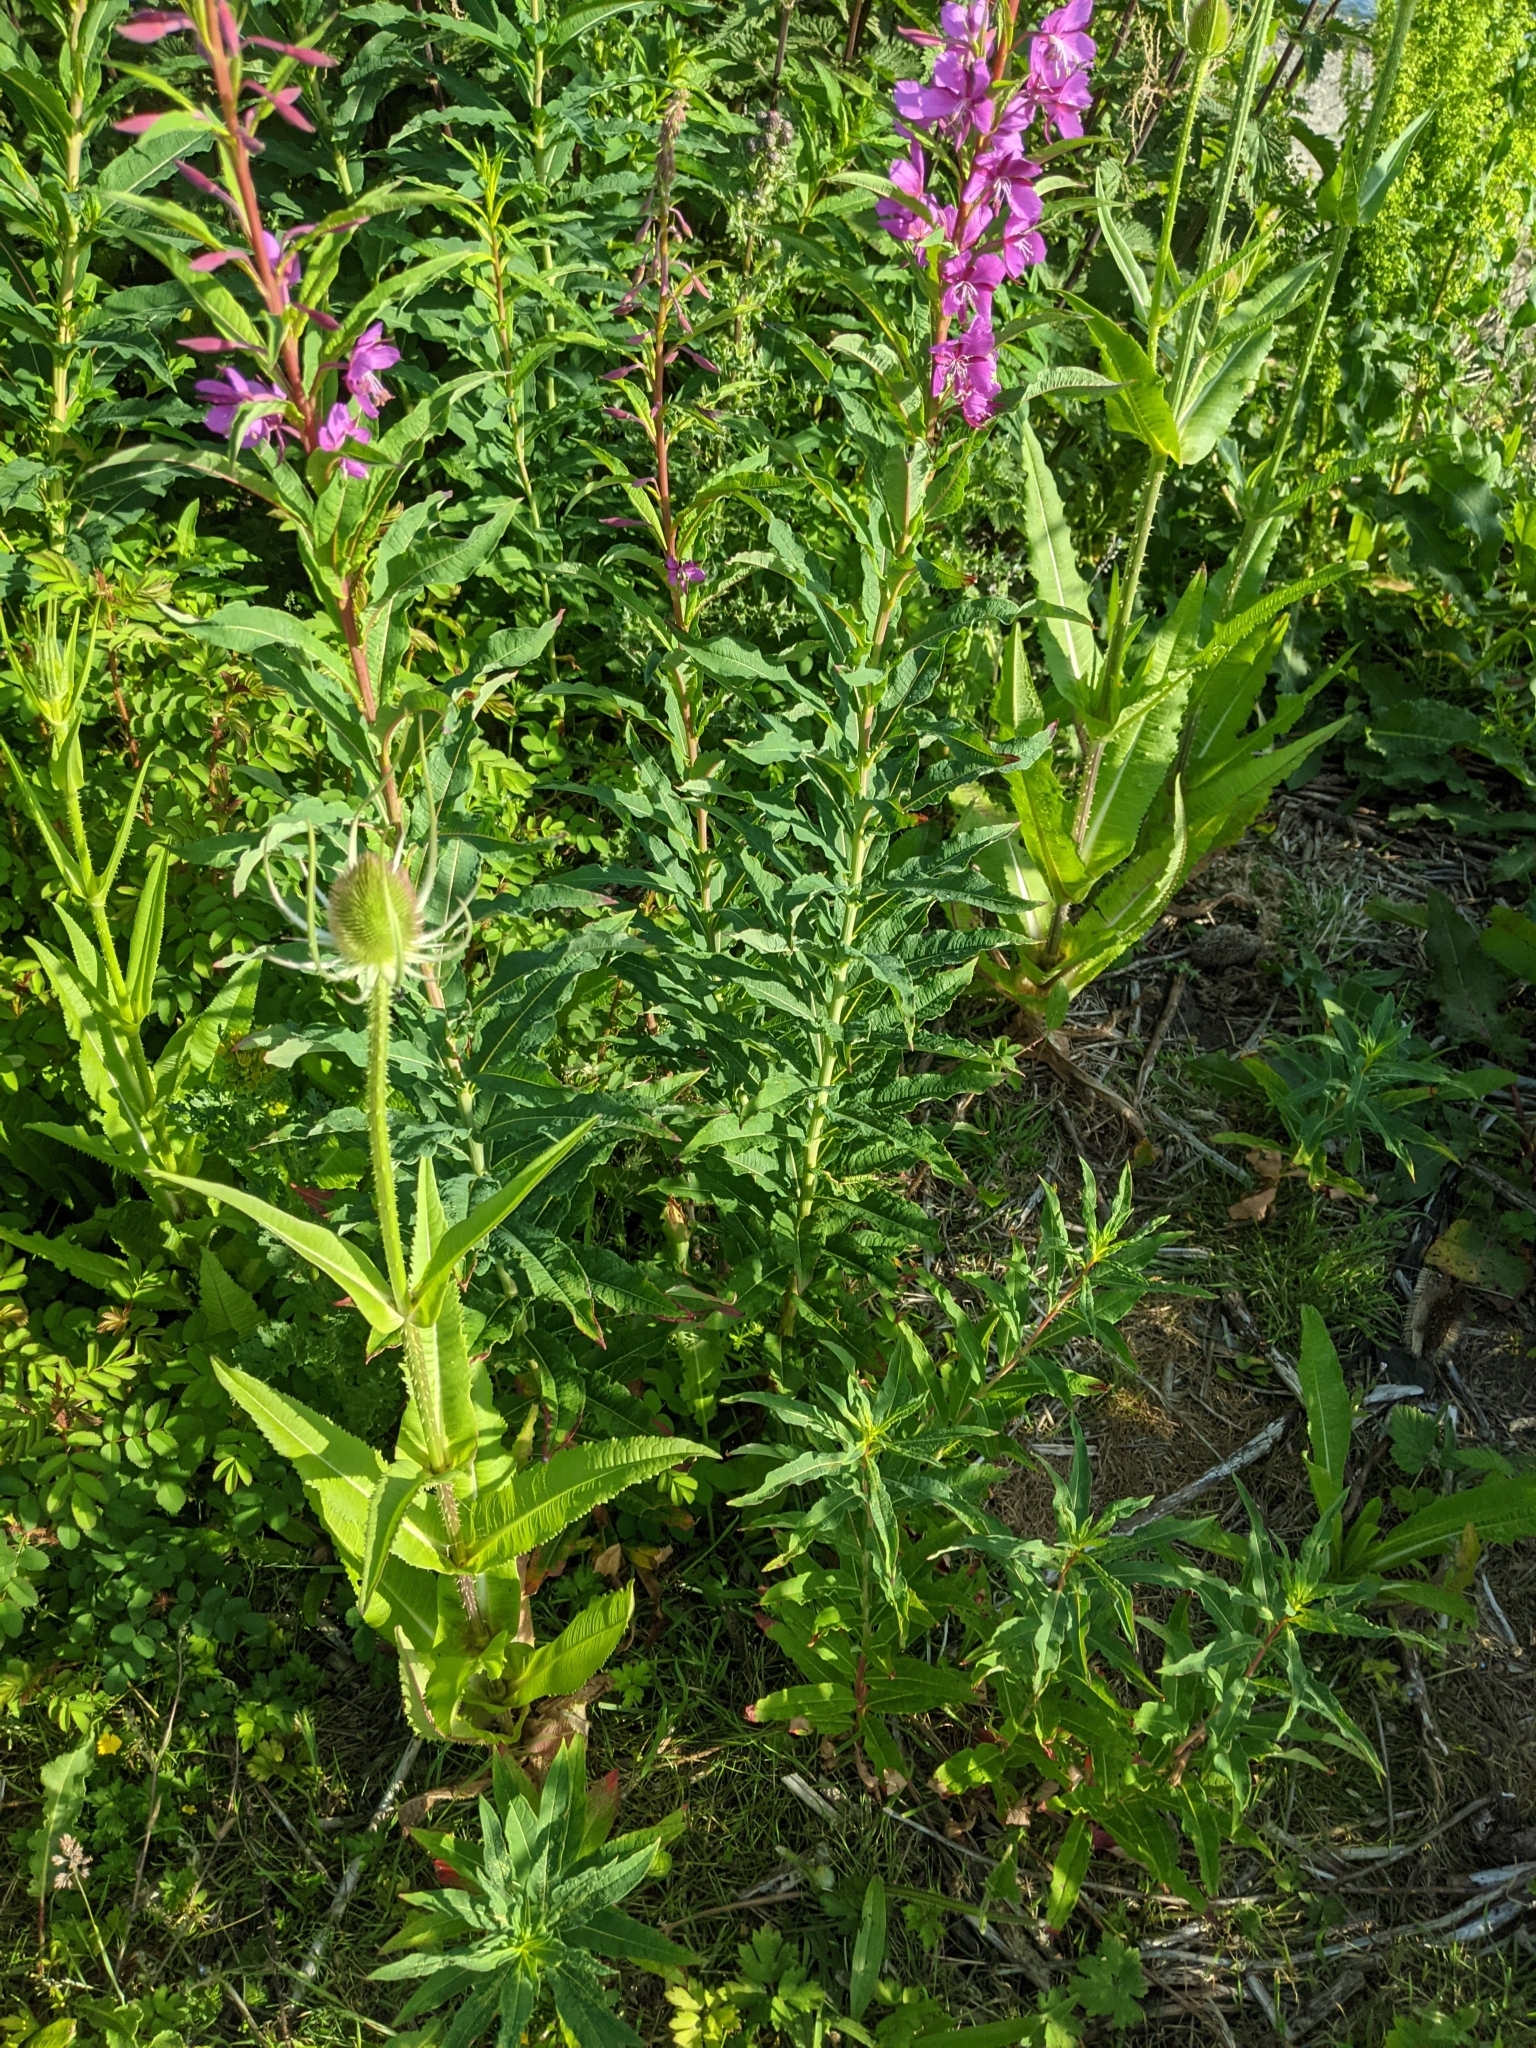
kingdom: Plantae
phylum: Tracheophyta
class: Magnoliopsida
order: Myrtales
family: Onagraceae
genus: Chamaenerion
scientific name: Chamaenerion angustifolium
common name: Fireweed
